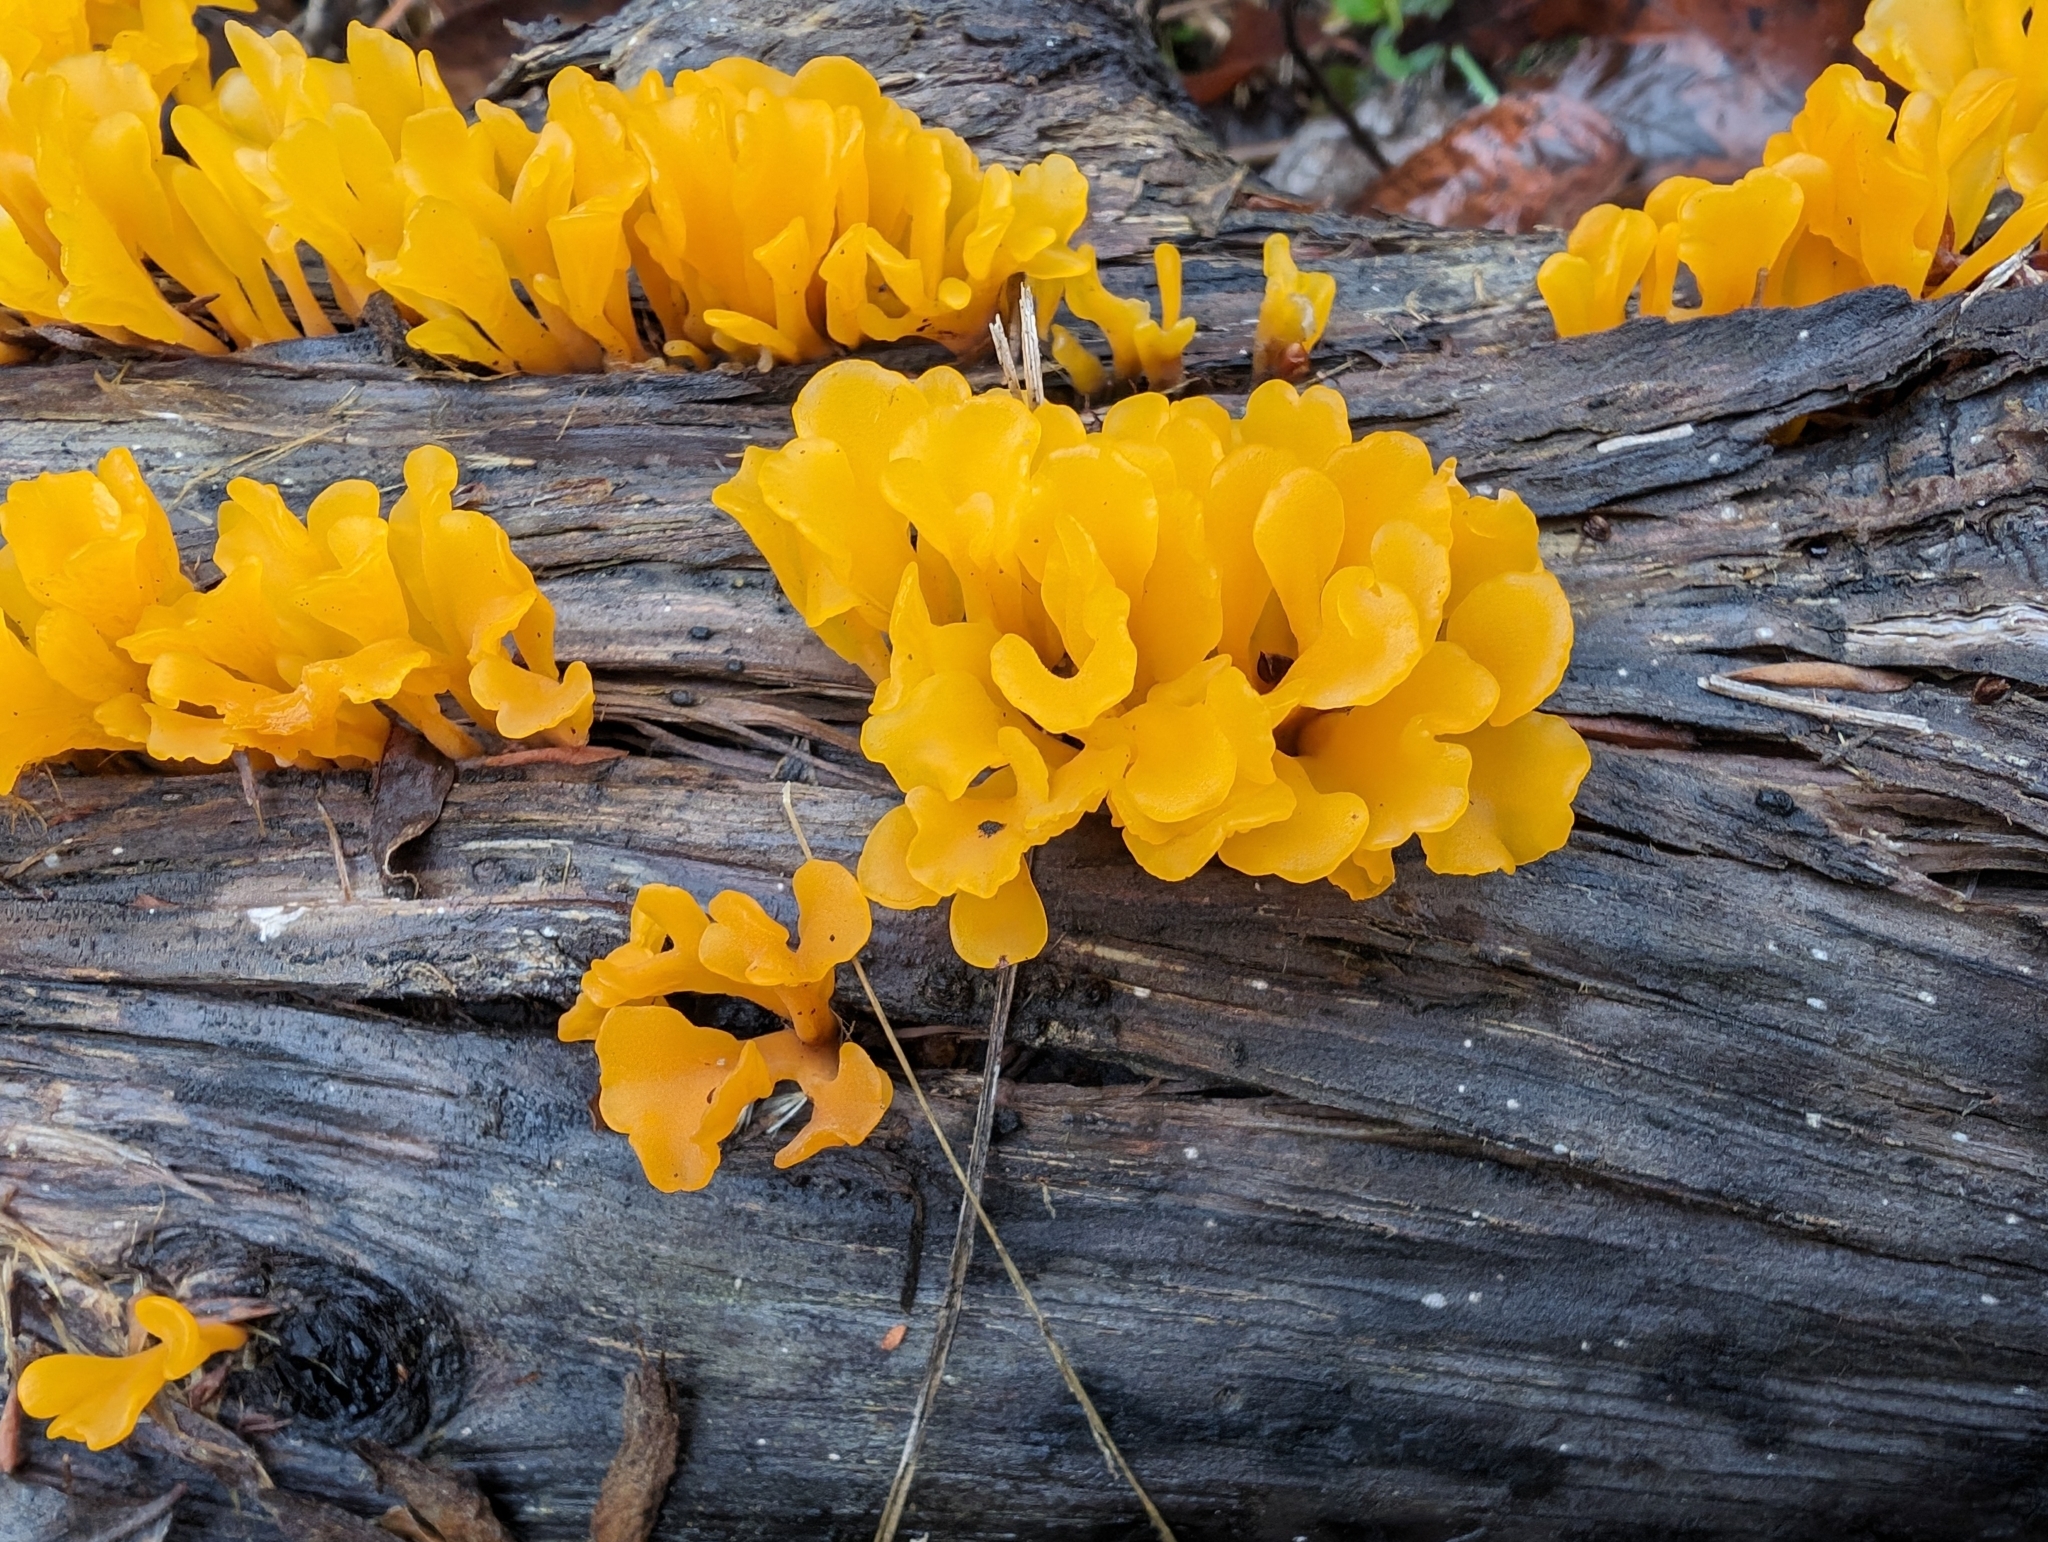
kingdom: Fungi
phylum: Basidiomycota
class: Dacrymycetes
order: Dacrymycetales
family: Dacrymycetaceae
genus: Dacrymyces
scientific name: Dacrymyces spathularius
